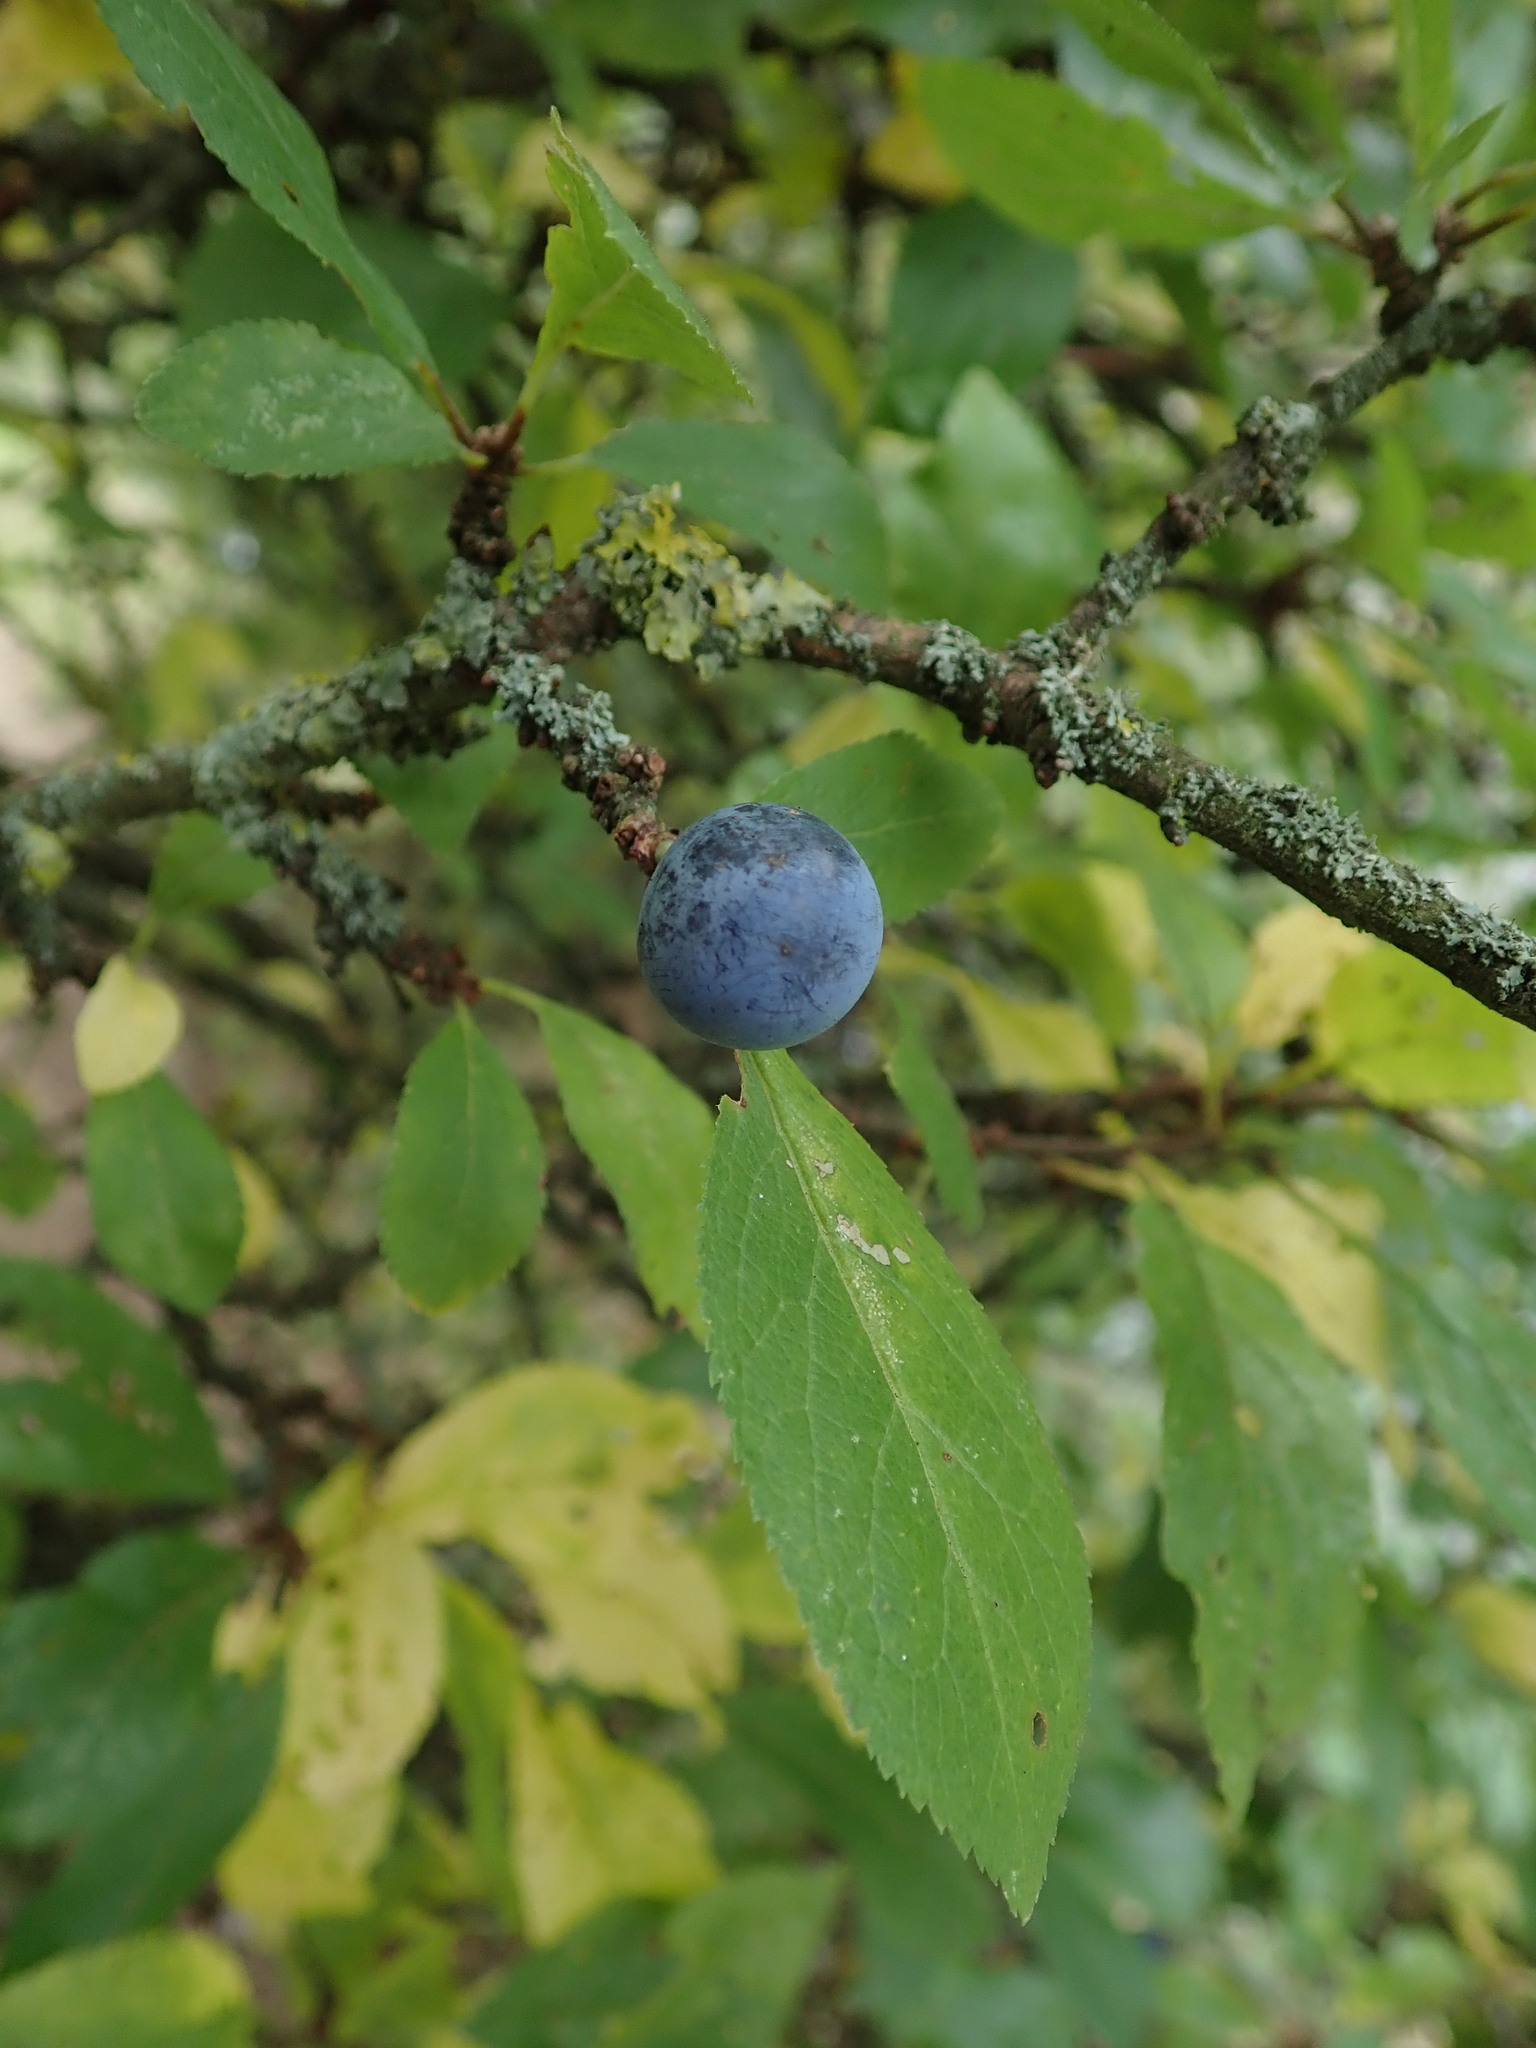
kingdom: Plantae
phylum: Tracheophyta
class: Magnoliopsida
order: Rosales
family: Rosaceae
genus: Prunus
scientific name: Prunus spinosa
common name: Blackthorn
